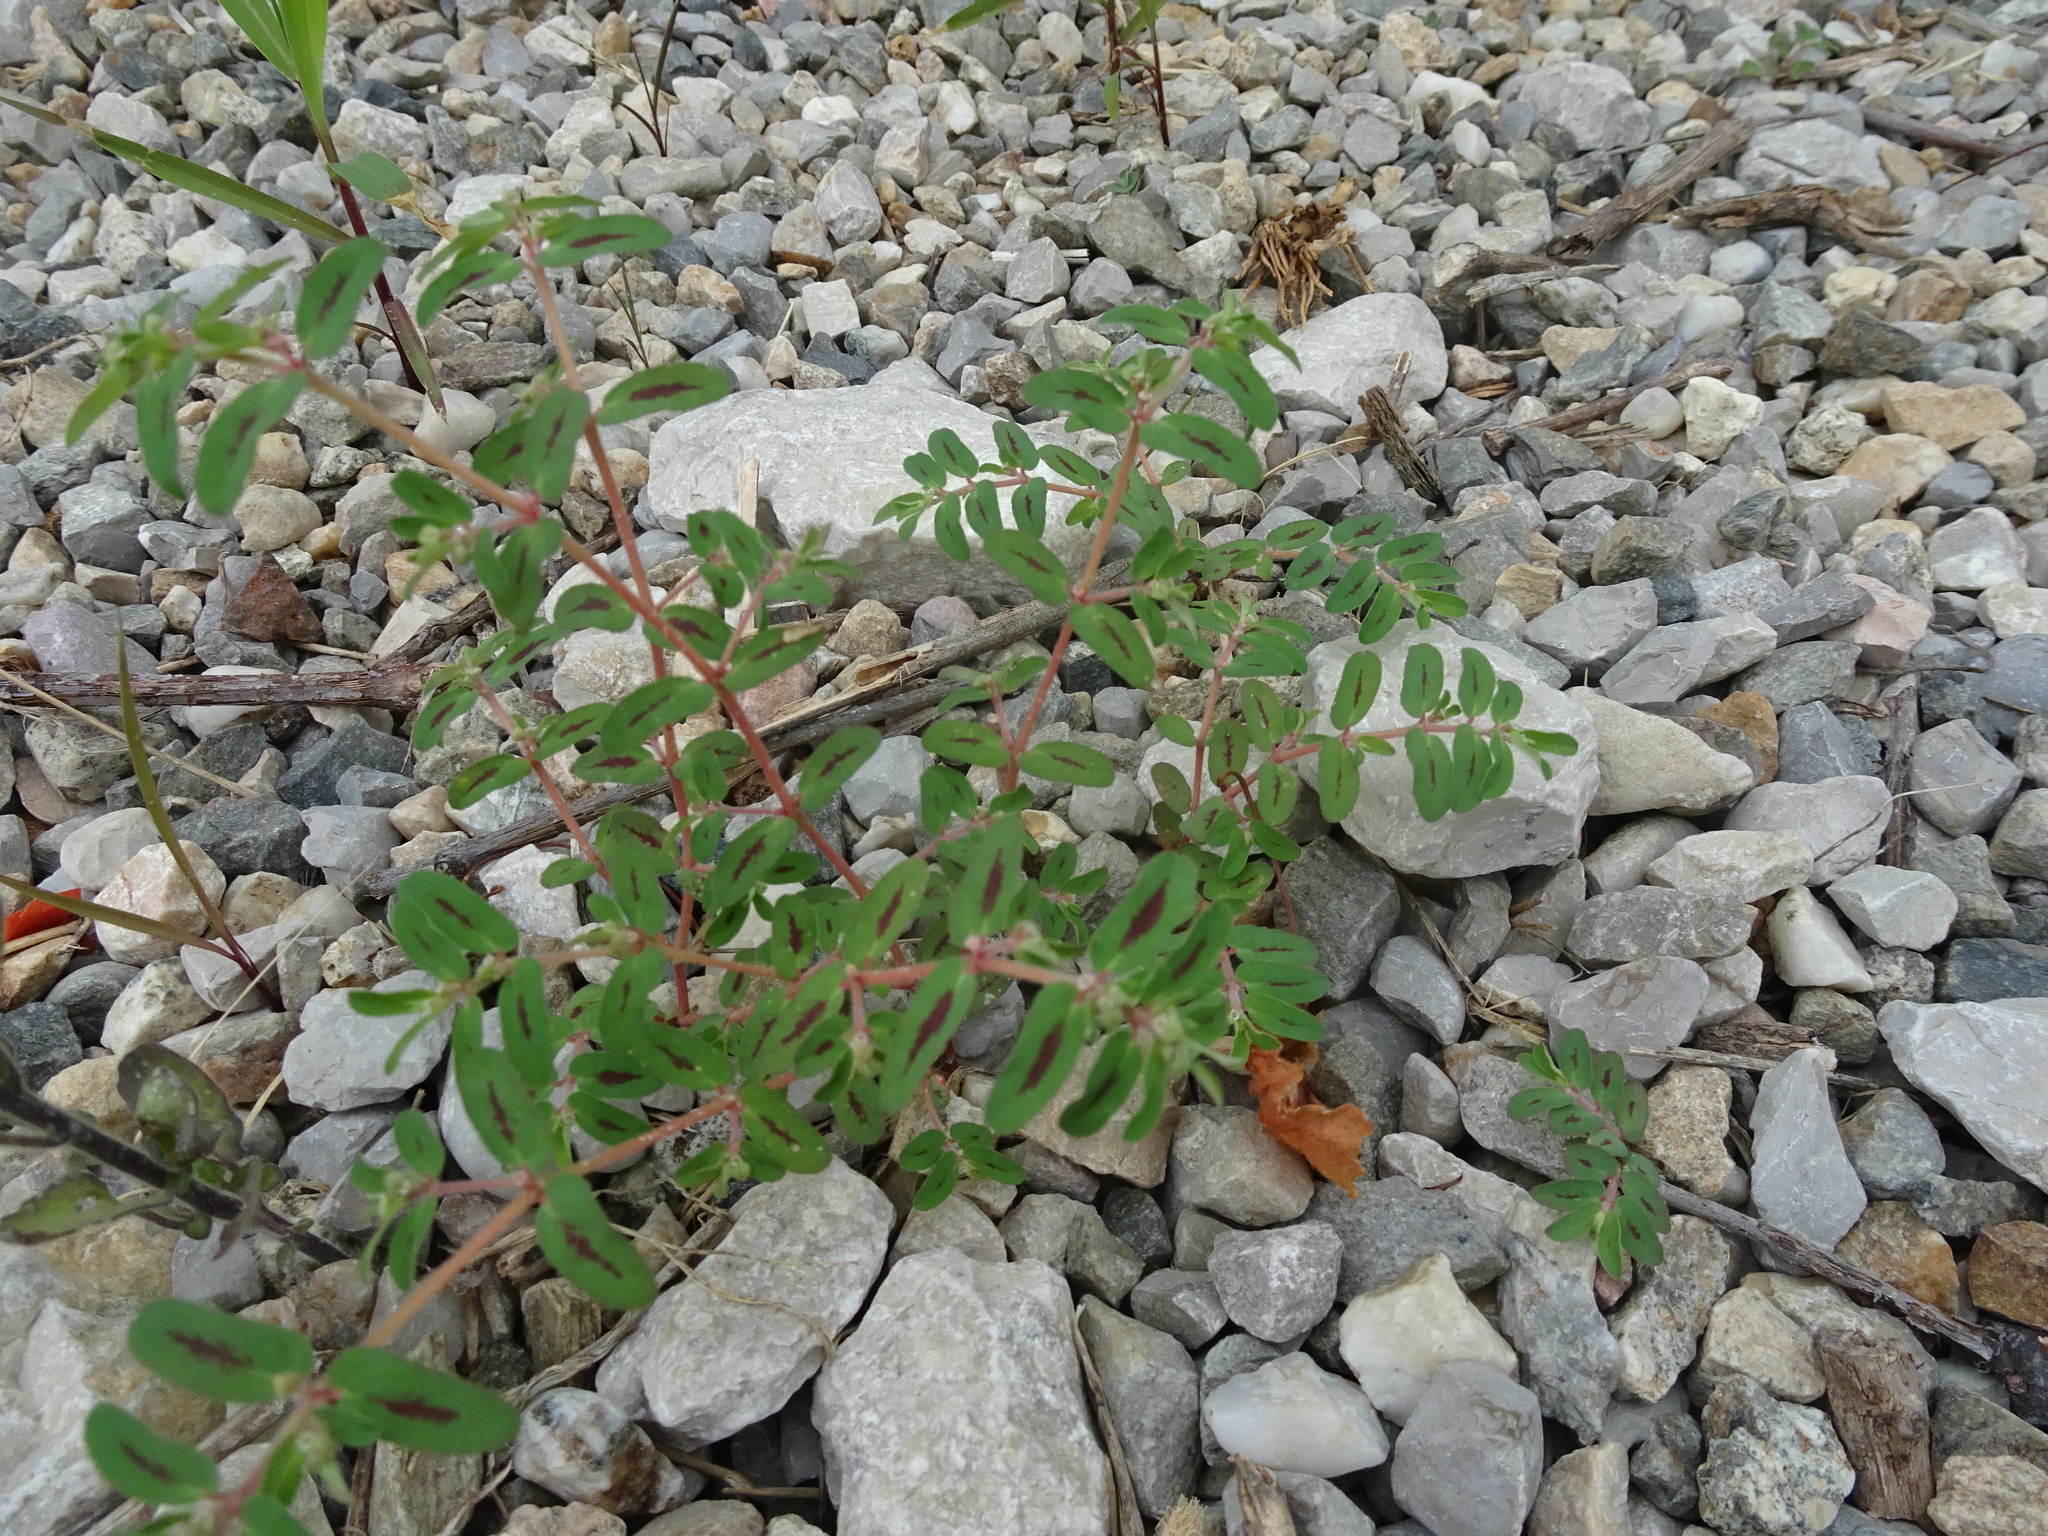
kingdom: Plantae
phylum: Tracheophyta
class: Magnoliopsida
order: Malpighiales
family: Euphorbiaceae
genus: Euphorbia
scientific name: Euphorbia maculata
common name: Spotted spurge
